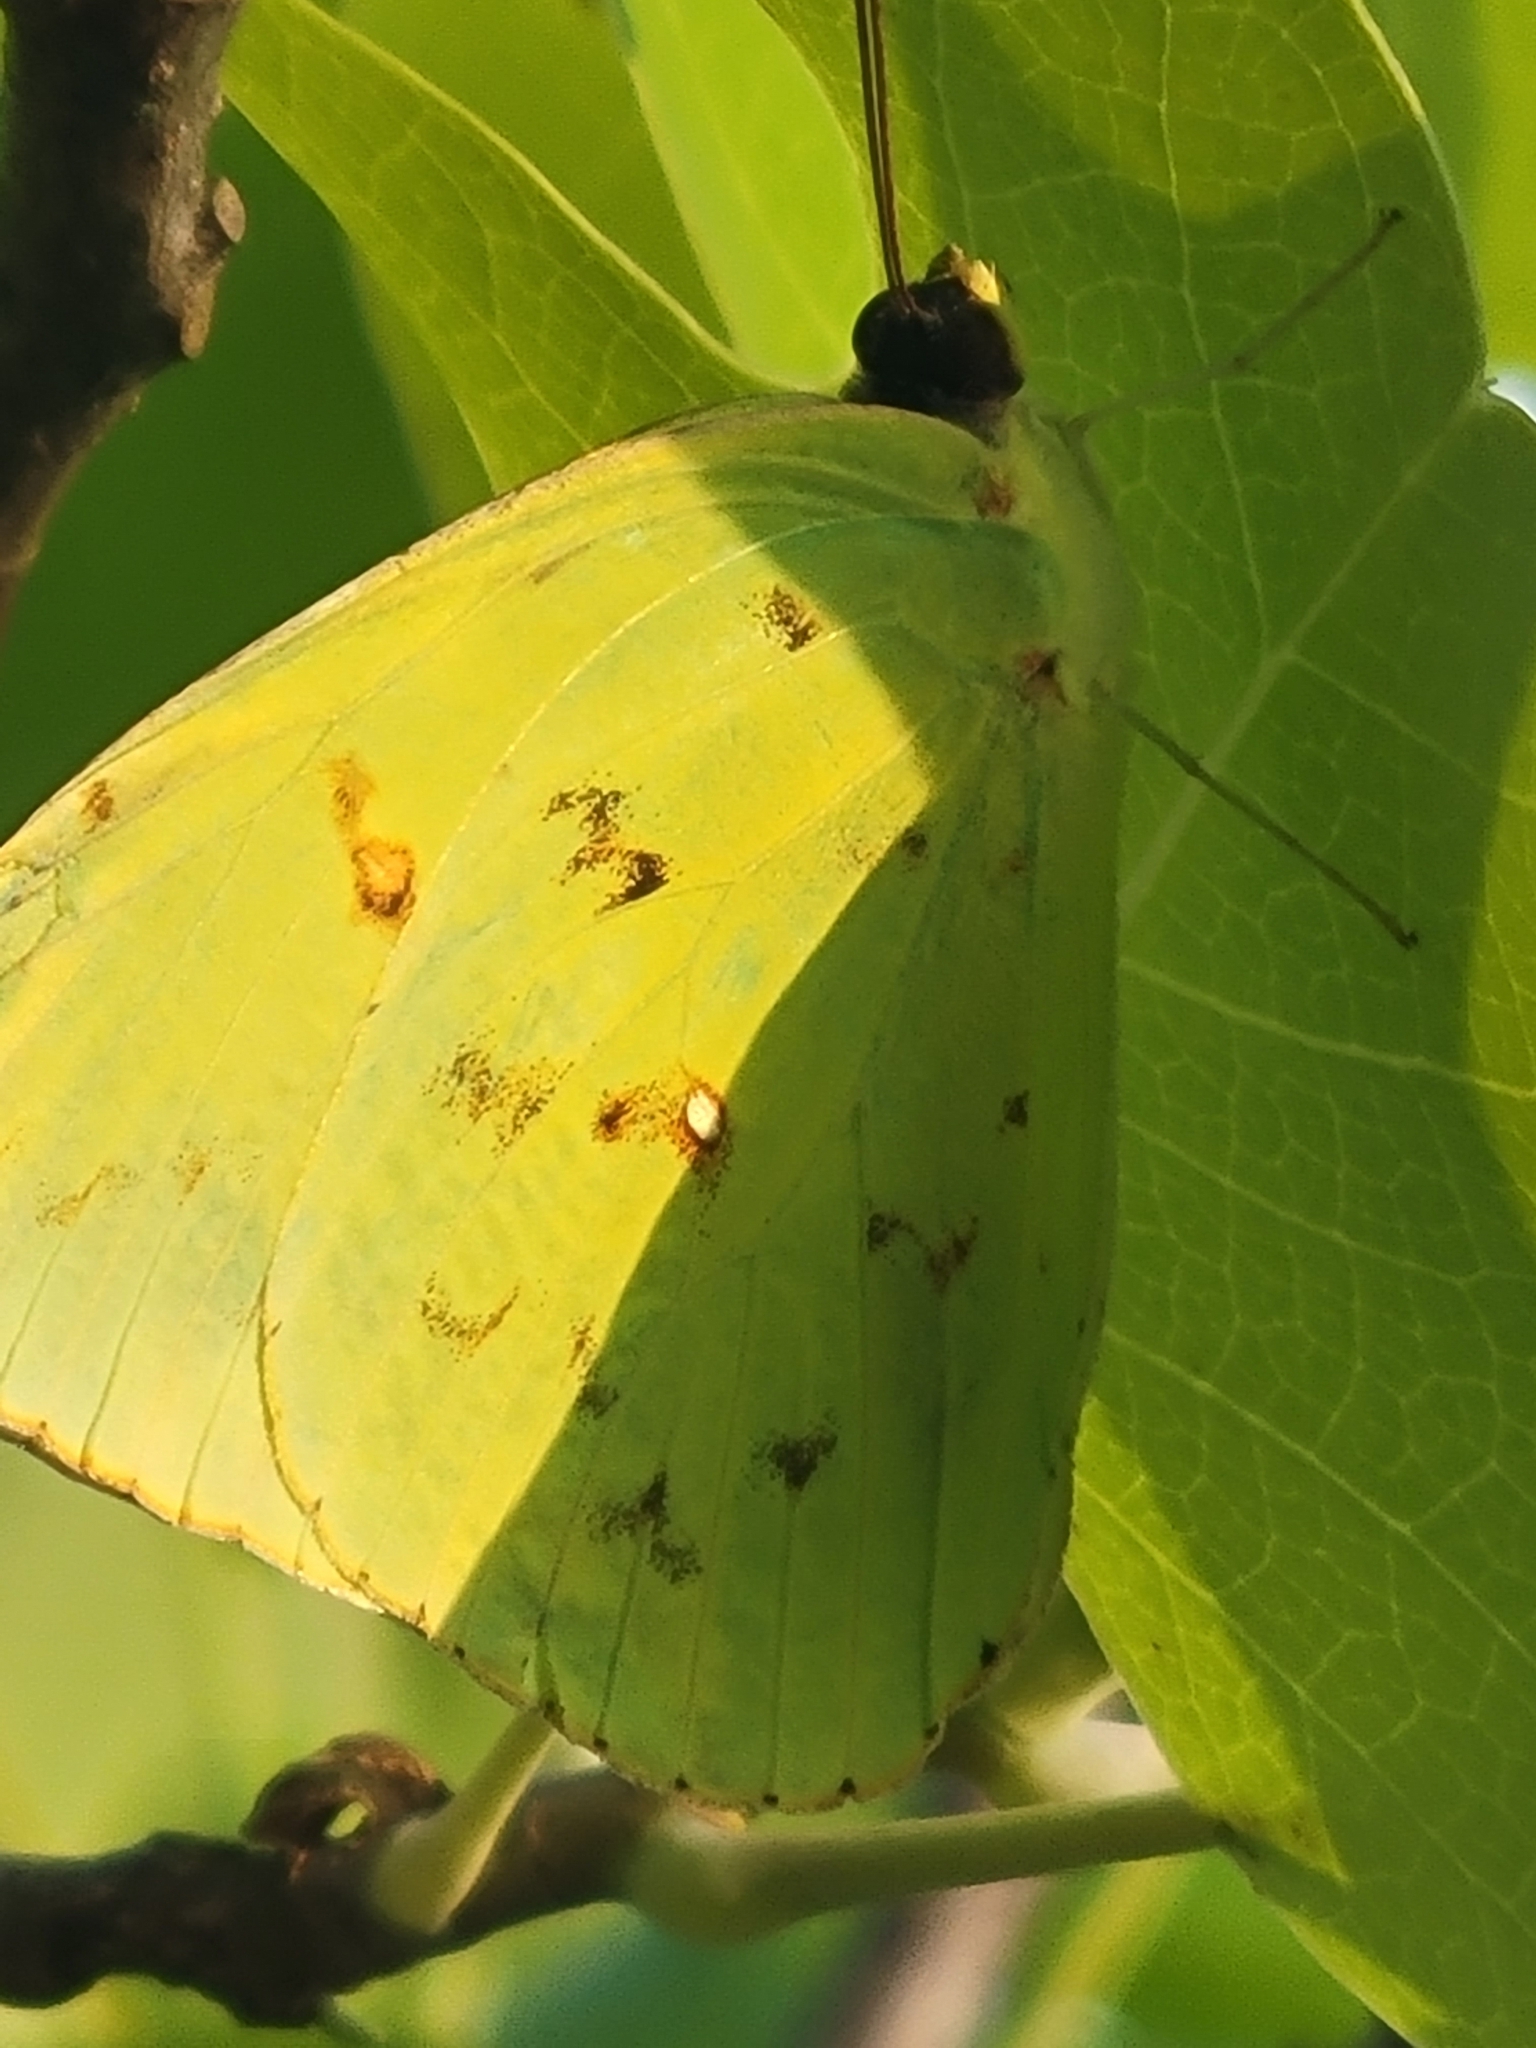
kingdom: Animalia
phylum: Arthropoda
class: Insecta
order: Lepidoptera
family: Pieridae
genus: Phoebis
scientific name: Phoebis sennae
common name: Cloudless sulphur
